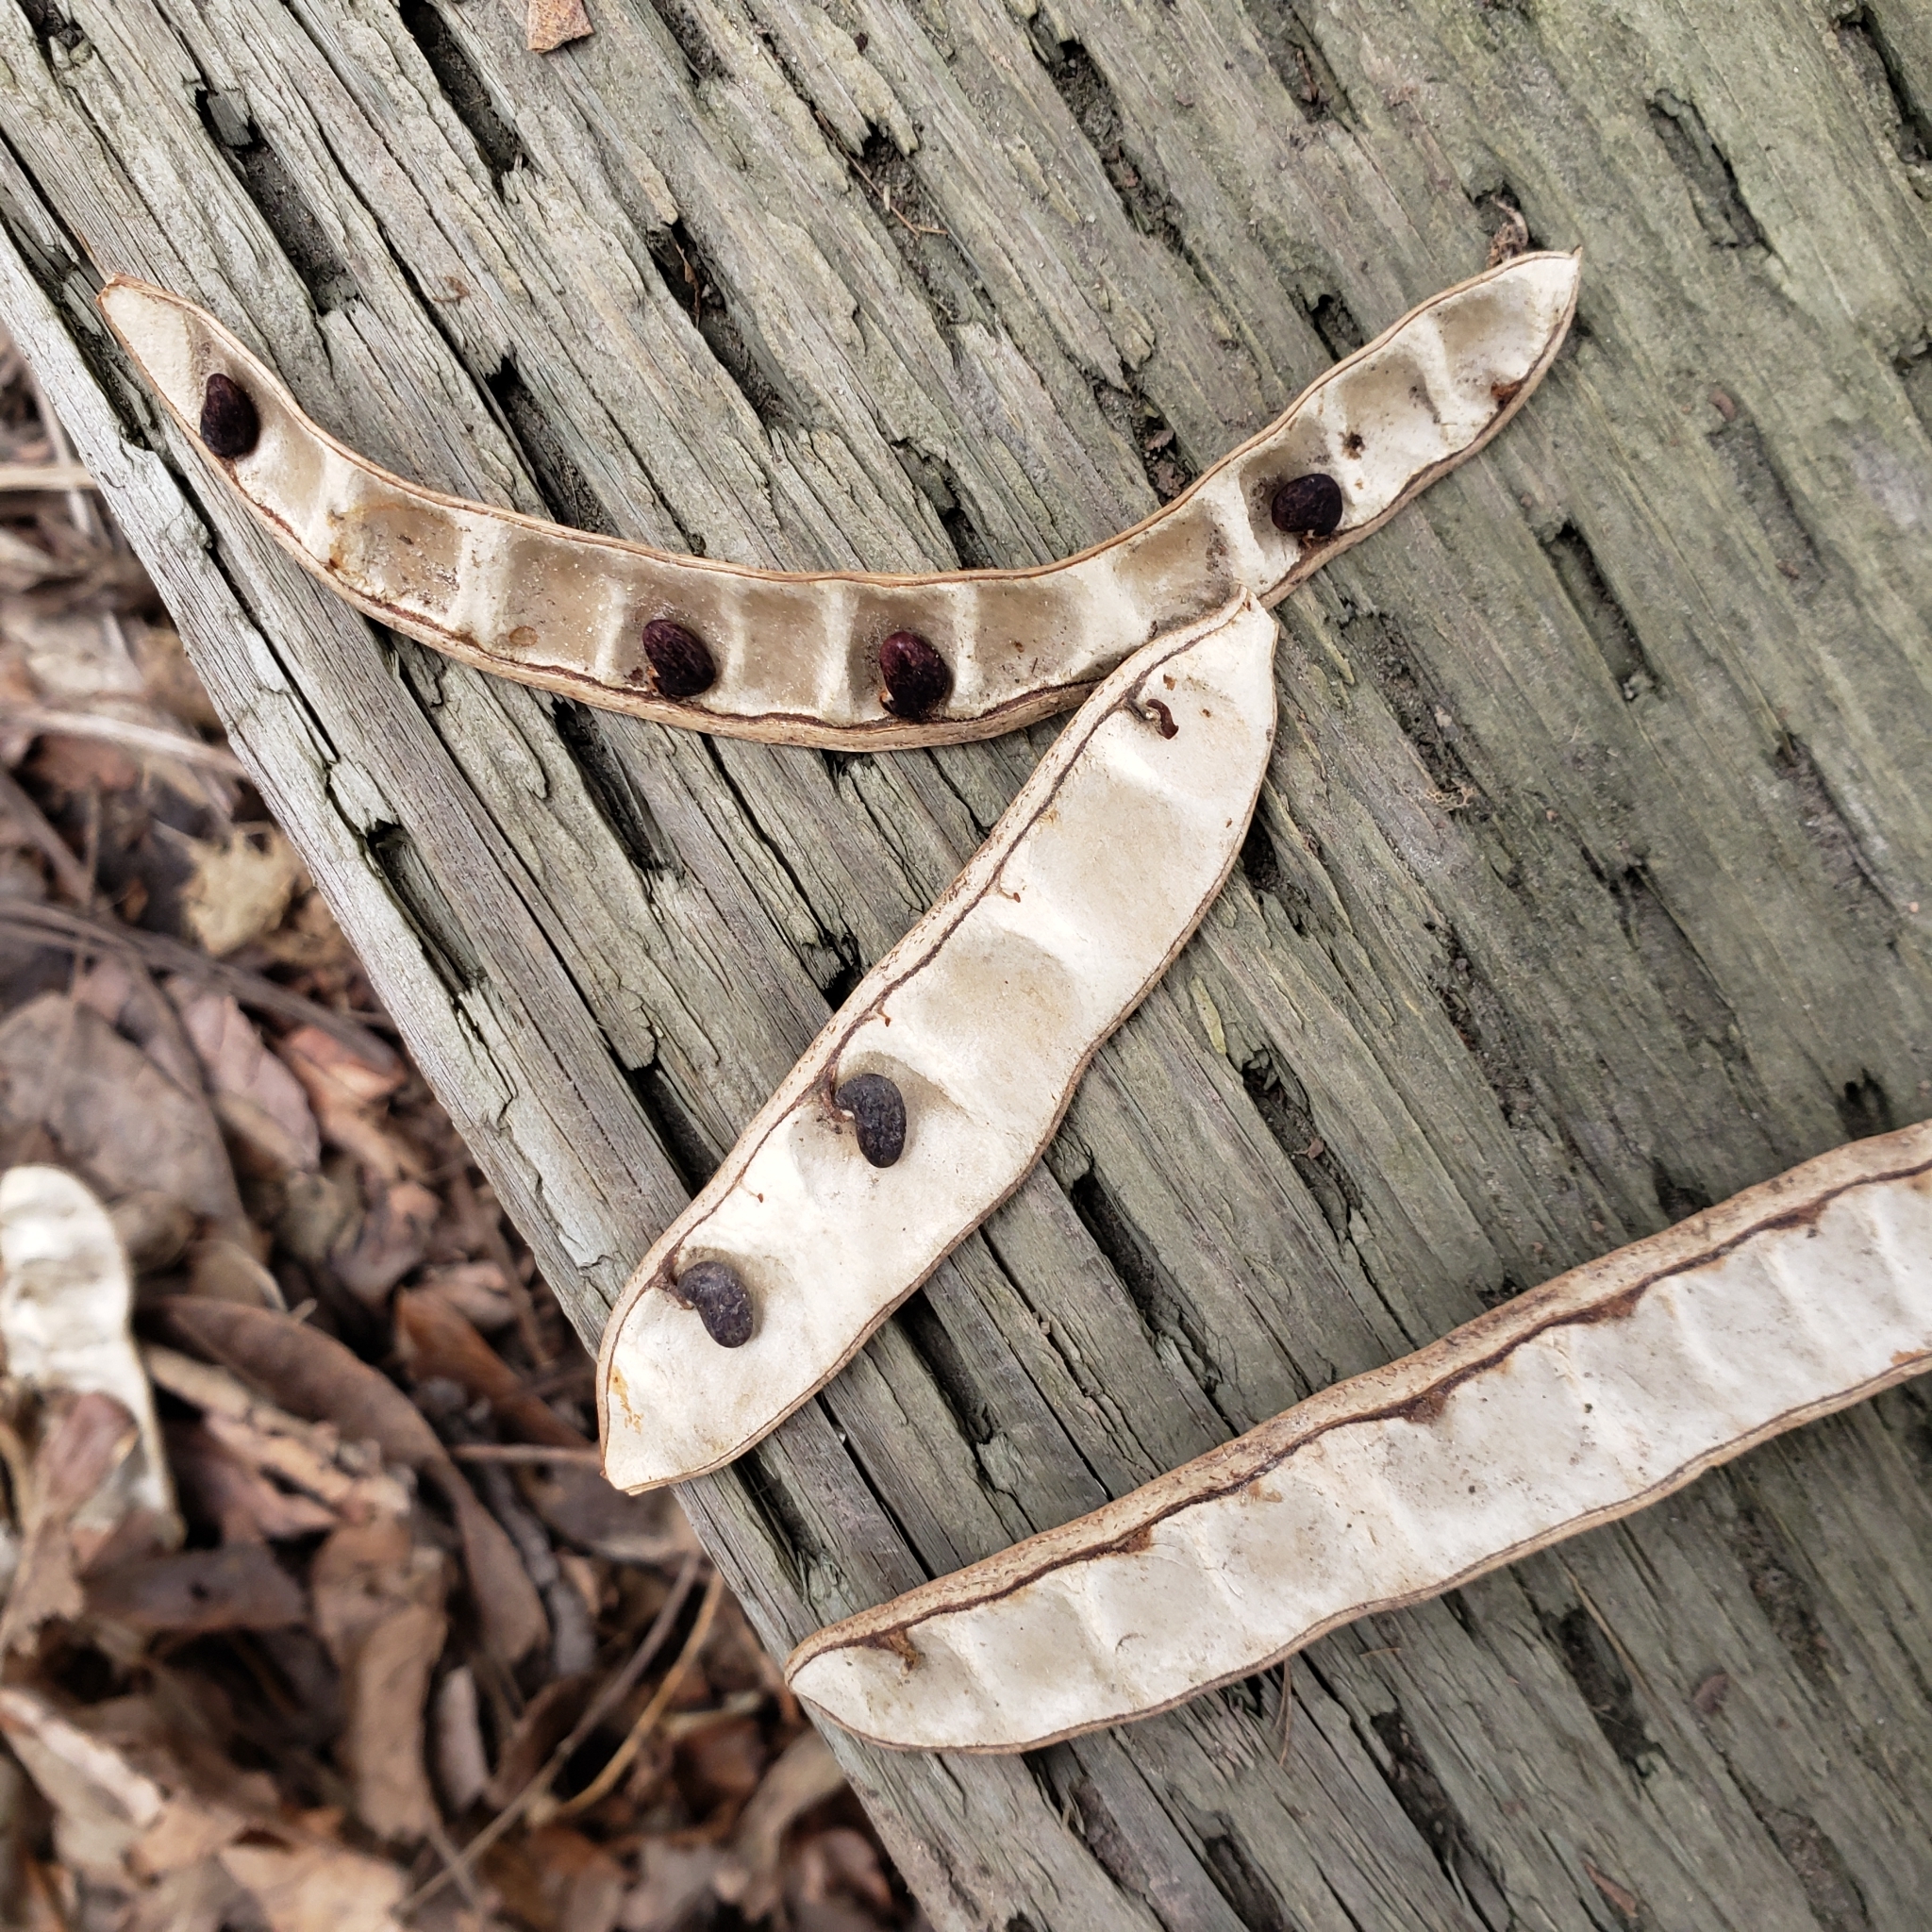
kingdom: Plantae
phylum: Tracheophyta
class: Magnoliopsida
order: Fabales
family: Fabaceae
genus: Robinia
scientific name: Robinia pseudoacacia
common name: Black locust
